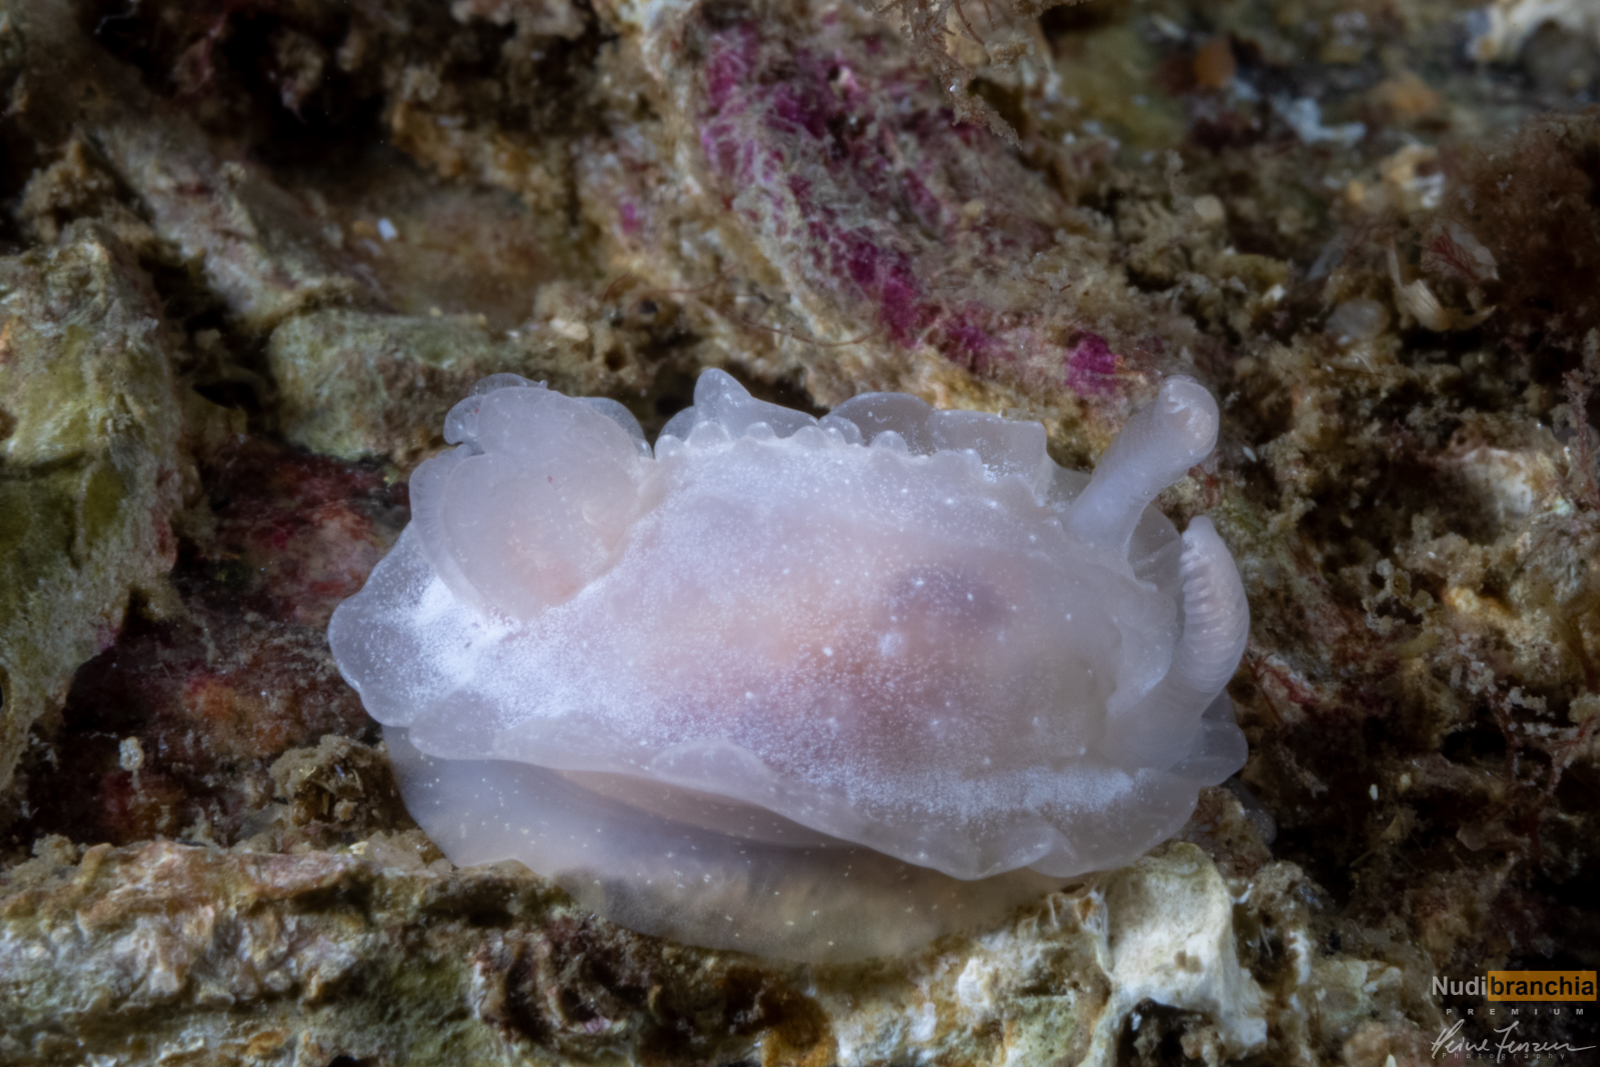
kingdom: Animalia
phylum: Mollusca
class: Gastropoda
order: Nudibranchia
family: Goniodorididae
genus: Okenia
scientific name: Okenia
